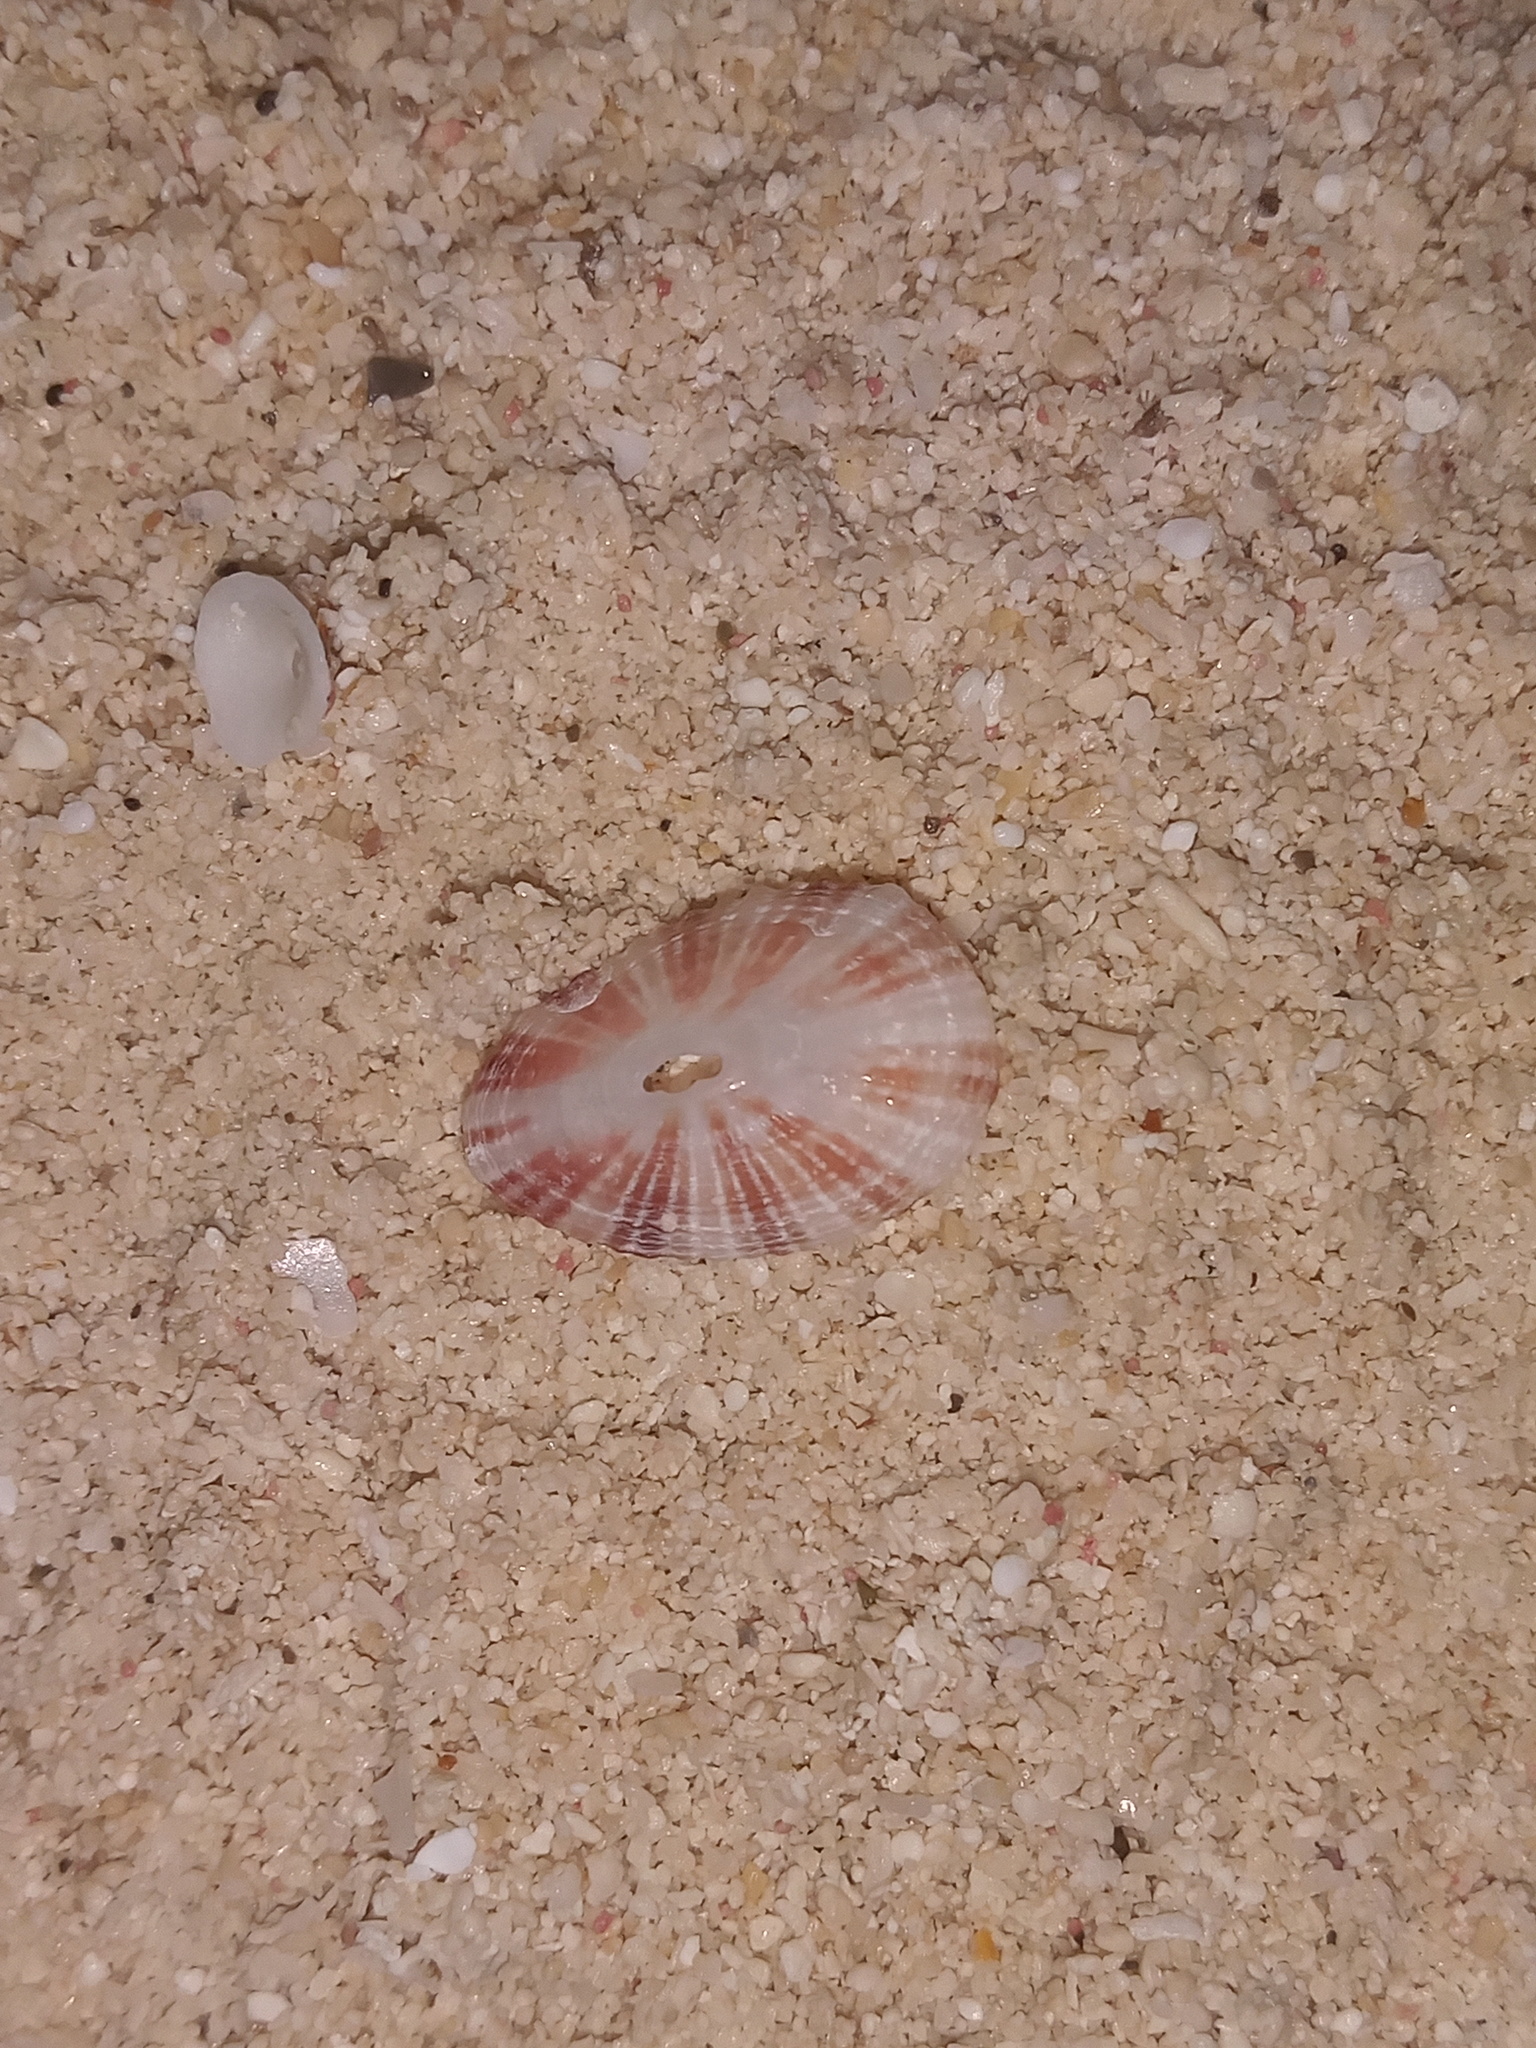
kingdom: Animalia
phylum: Mollusca
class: Gastropoda
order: Lepetellida
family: Fissurellidae
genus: Fissurella
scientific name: Fissurella fascicularis
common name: Wobby keyhole limpet
